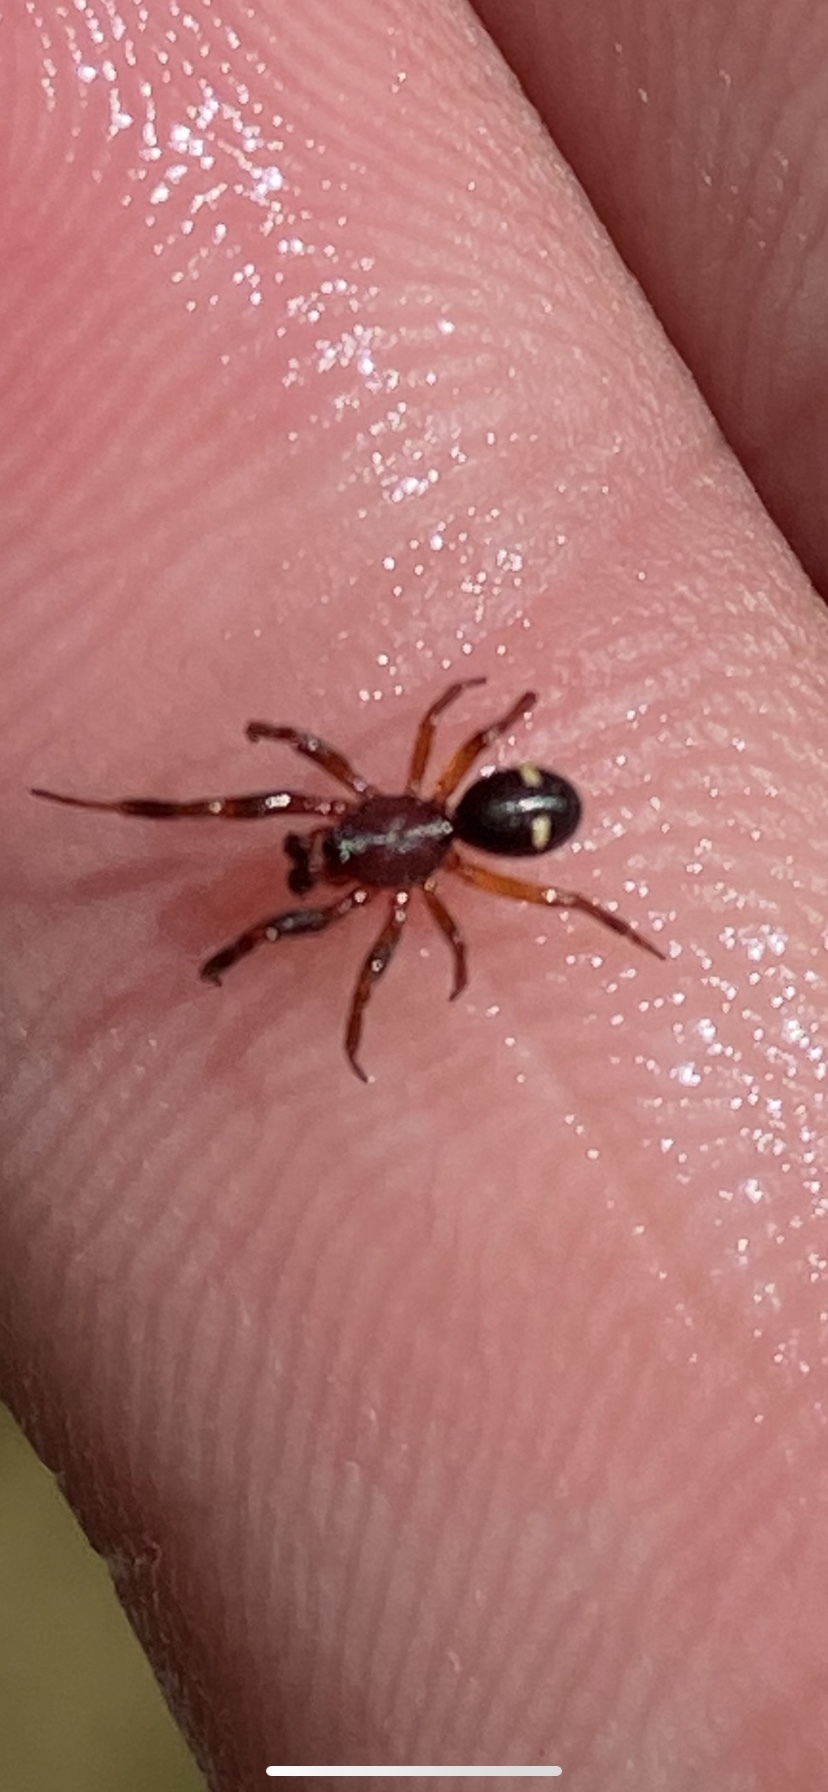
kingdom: Animalia
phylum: Arthropoda
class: Arachnida
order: Araneae
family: Theridiidae
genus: Asagena
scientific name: Asagena americana
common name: Two-spotted cobweb spider
